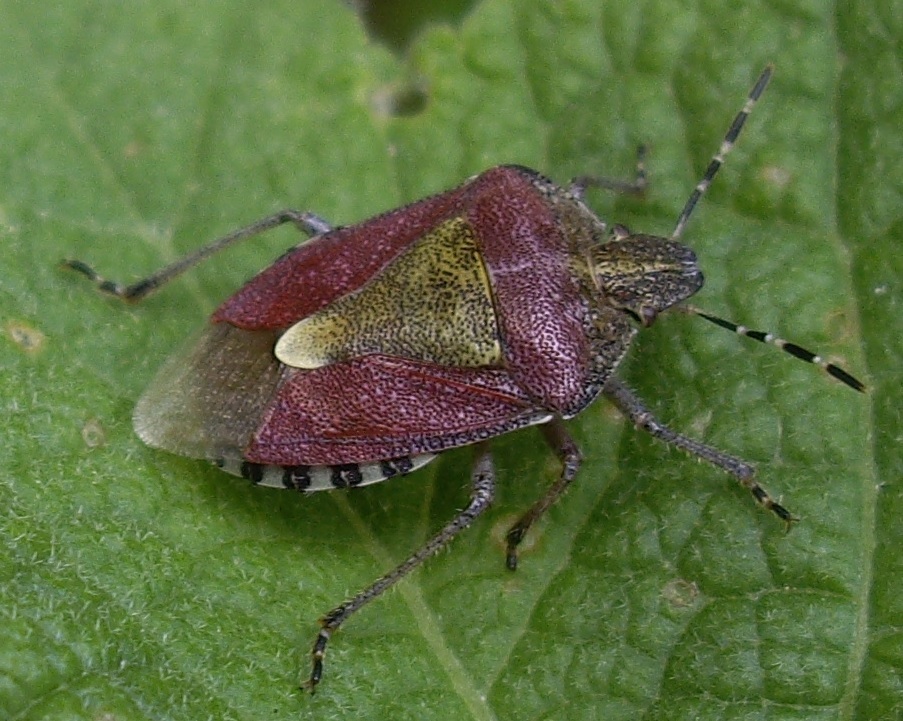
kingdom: Animalia
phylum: Arthropoda
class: Insecta
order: Hemiptera
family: Pentatomidae
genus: Dolycoris
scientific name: Dolycoris baccarum
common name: Sloe bug
